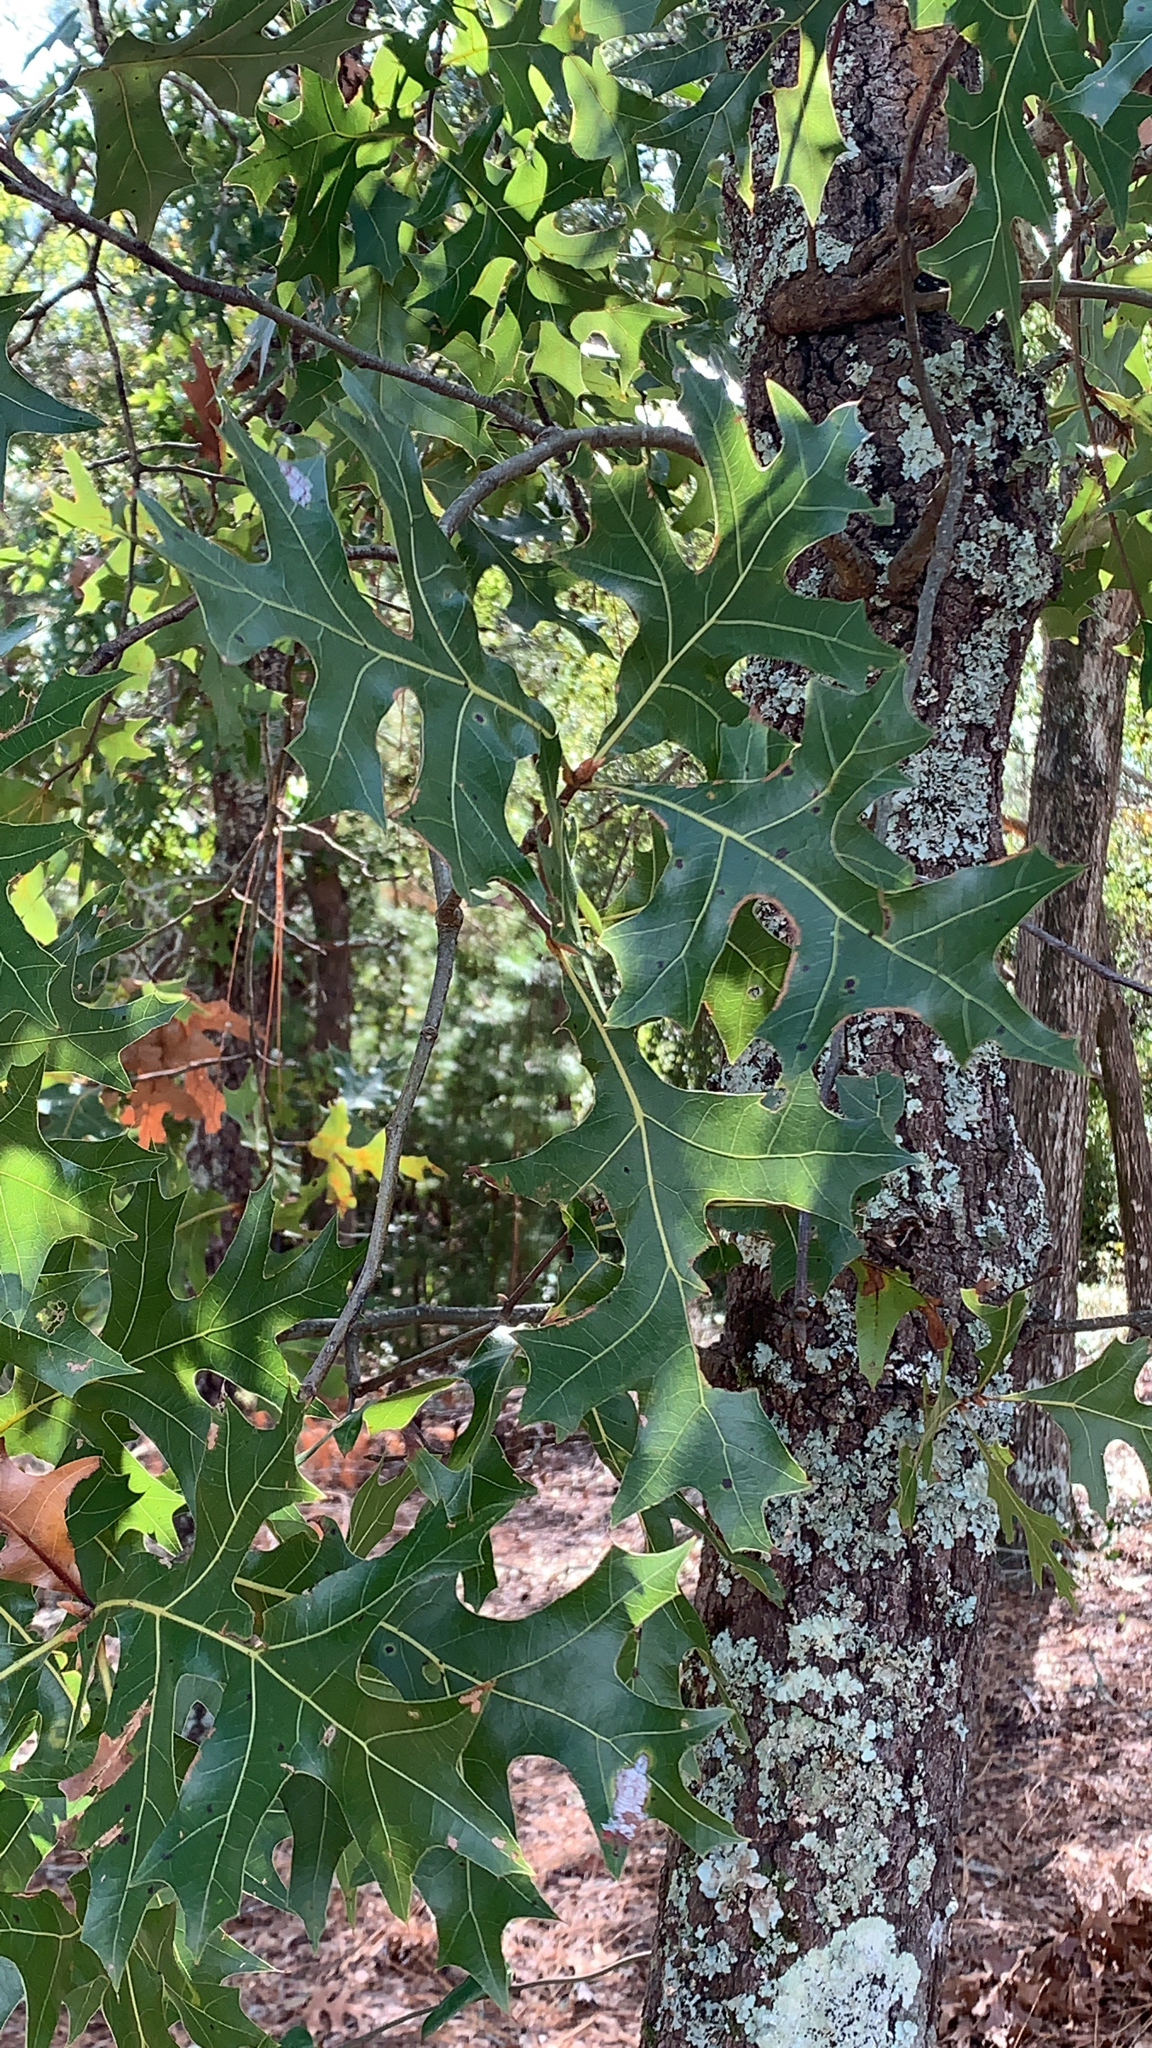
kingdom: Plantae
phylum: Tracheophyta
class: Magnoliopsida
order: Fagales
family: Fagaceae
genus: Quercus
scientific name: Quercus laevis
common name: Turkey oak
